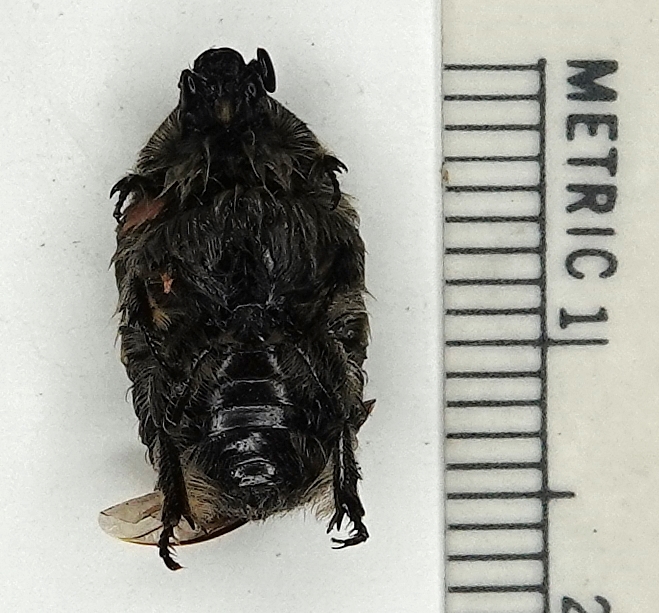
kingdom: Animalia
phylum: Arthropoda
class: Insecta
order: Coleoptera
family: Scarabaeidae
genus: Euphoria
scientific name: Euphoria inda
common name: Bumble flower beetle
